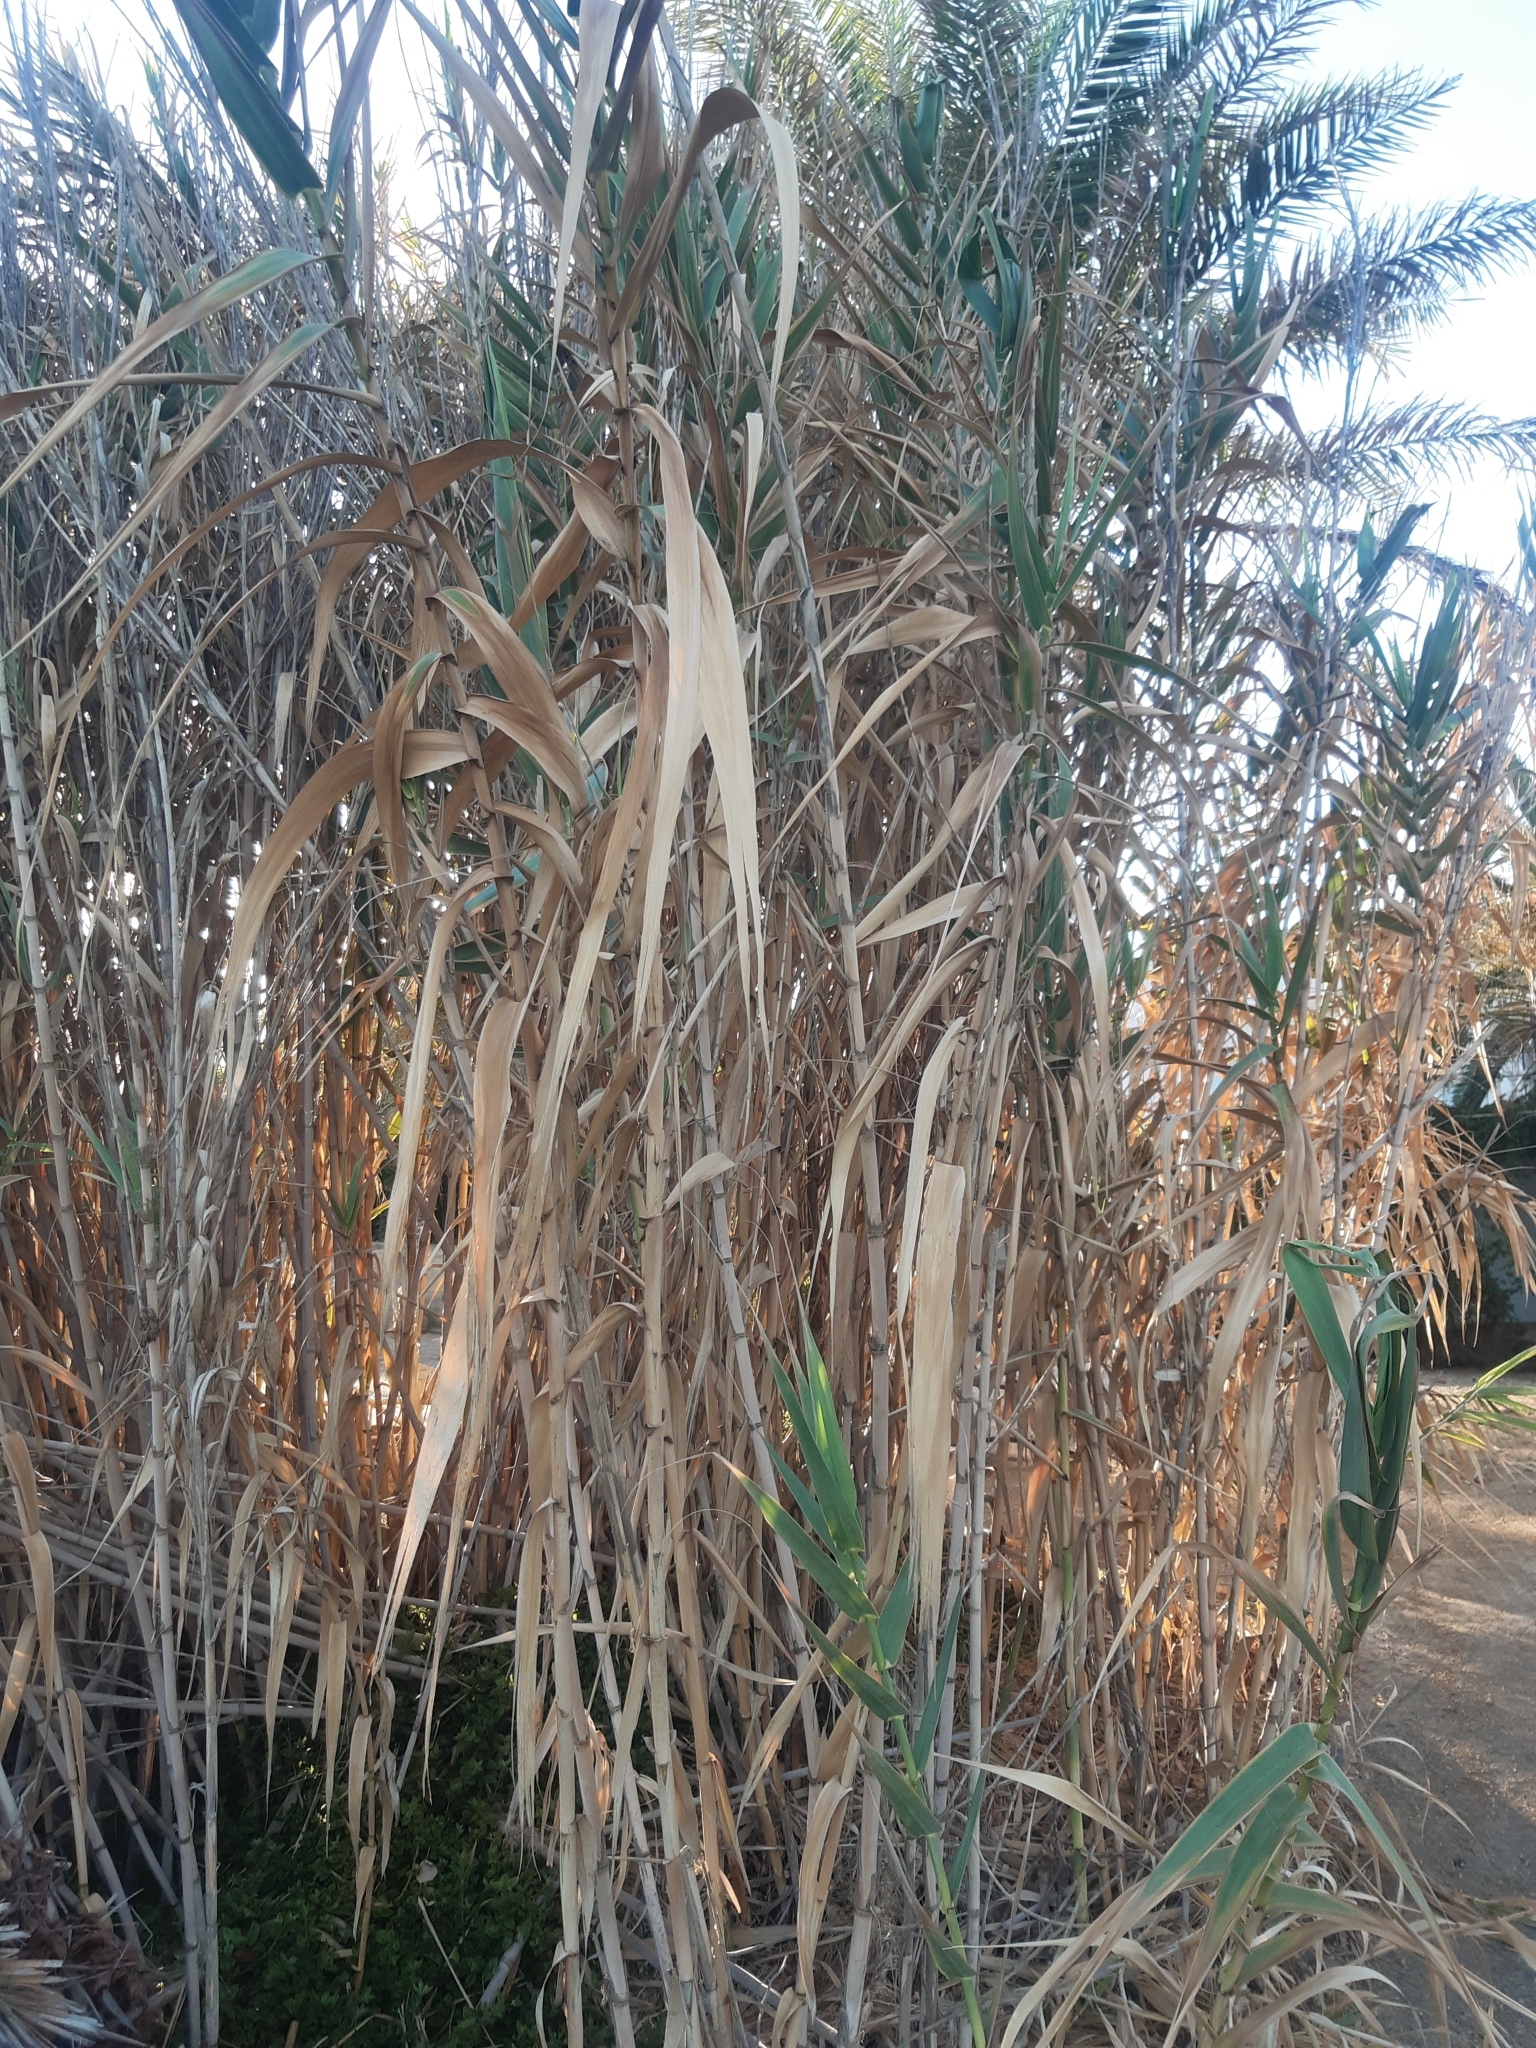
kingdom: Plantae
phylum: Tracheophyta
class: Liliopsida
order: Poales
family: Poaceae
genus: Arundo
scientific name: Arundo donax
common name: Giant reed
